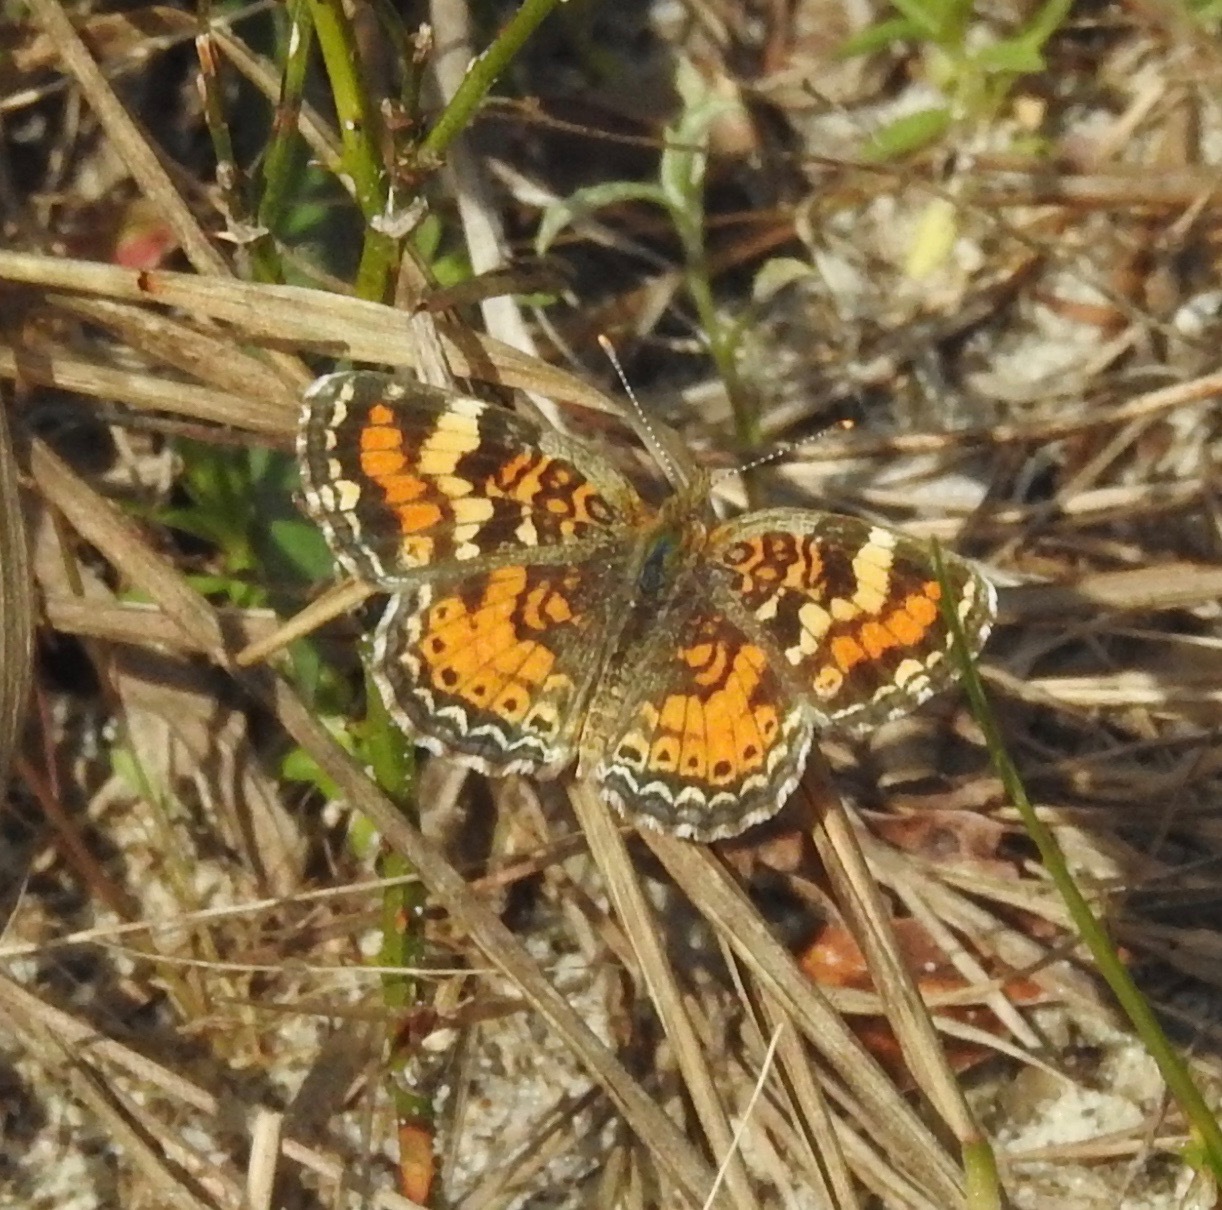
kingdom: Animalia
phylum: Arthropoda
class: Insecta
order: Lepidoptera
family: Nymphalidae
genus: Phyciodes
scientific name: Phyciodes phaon
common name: Phaon crescent
